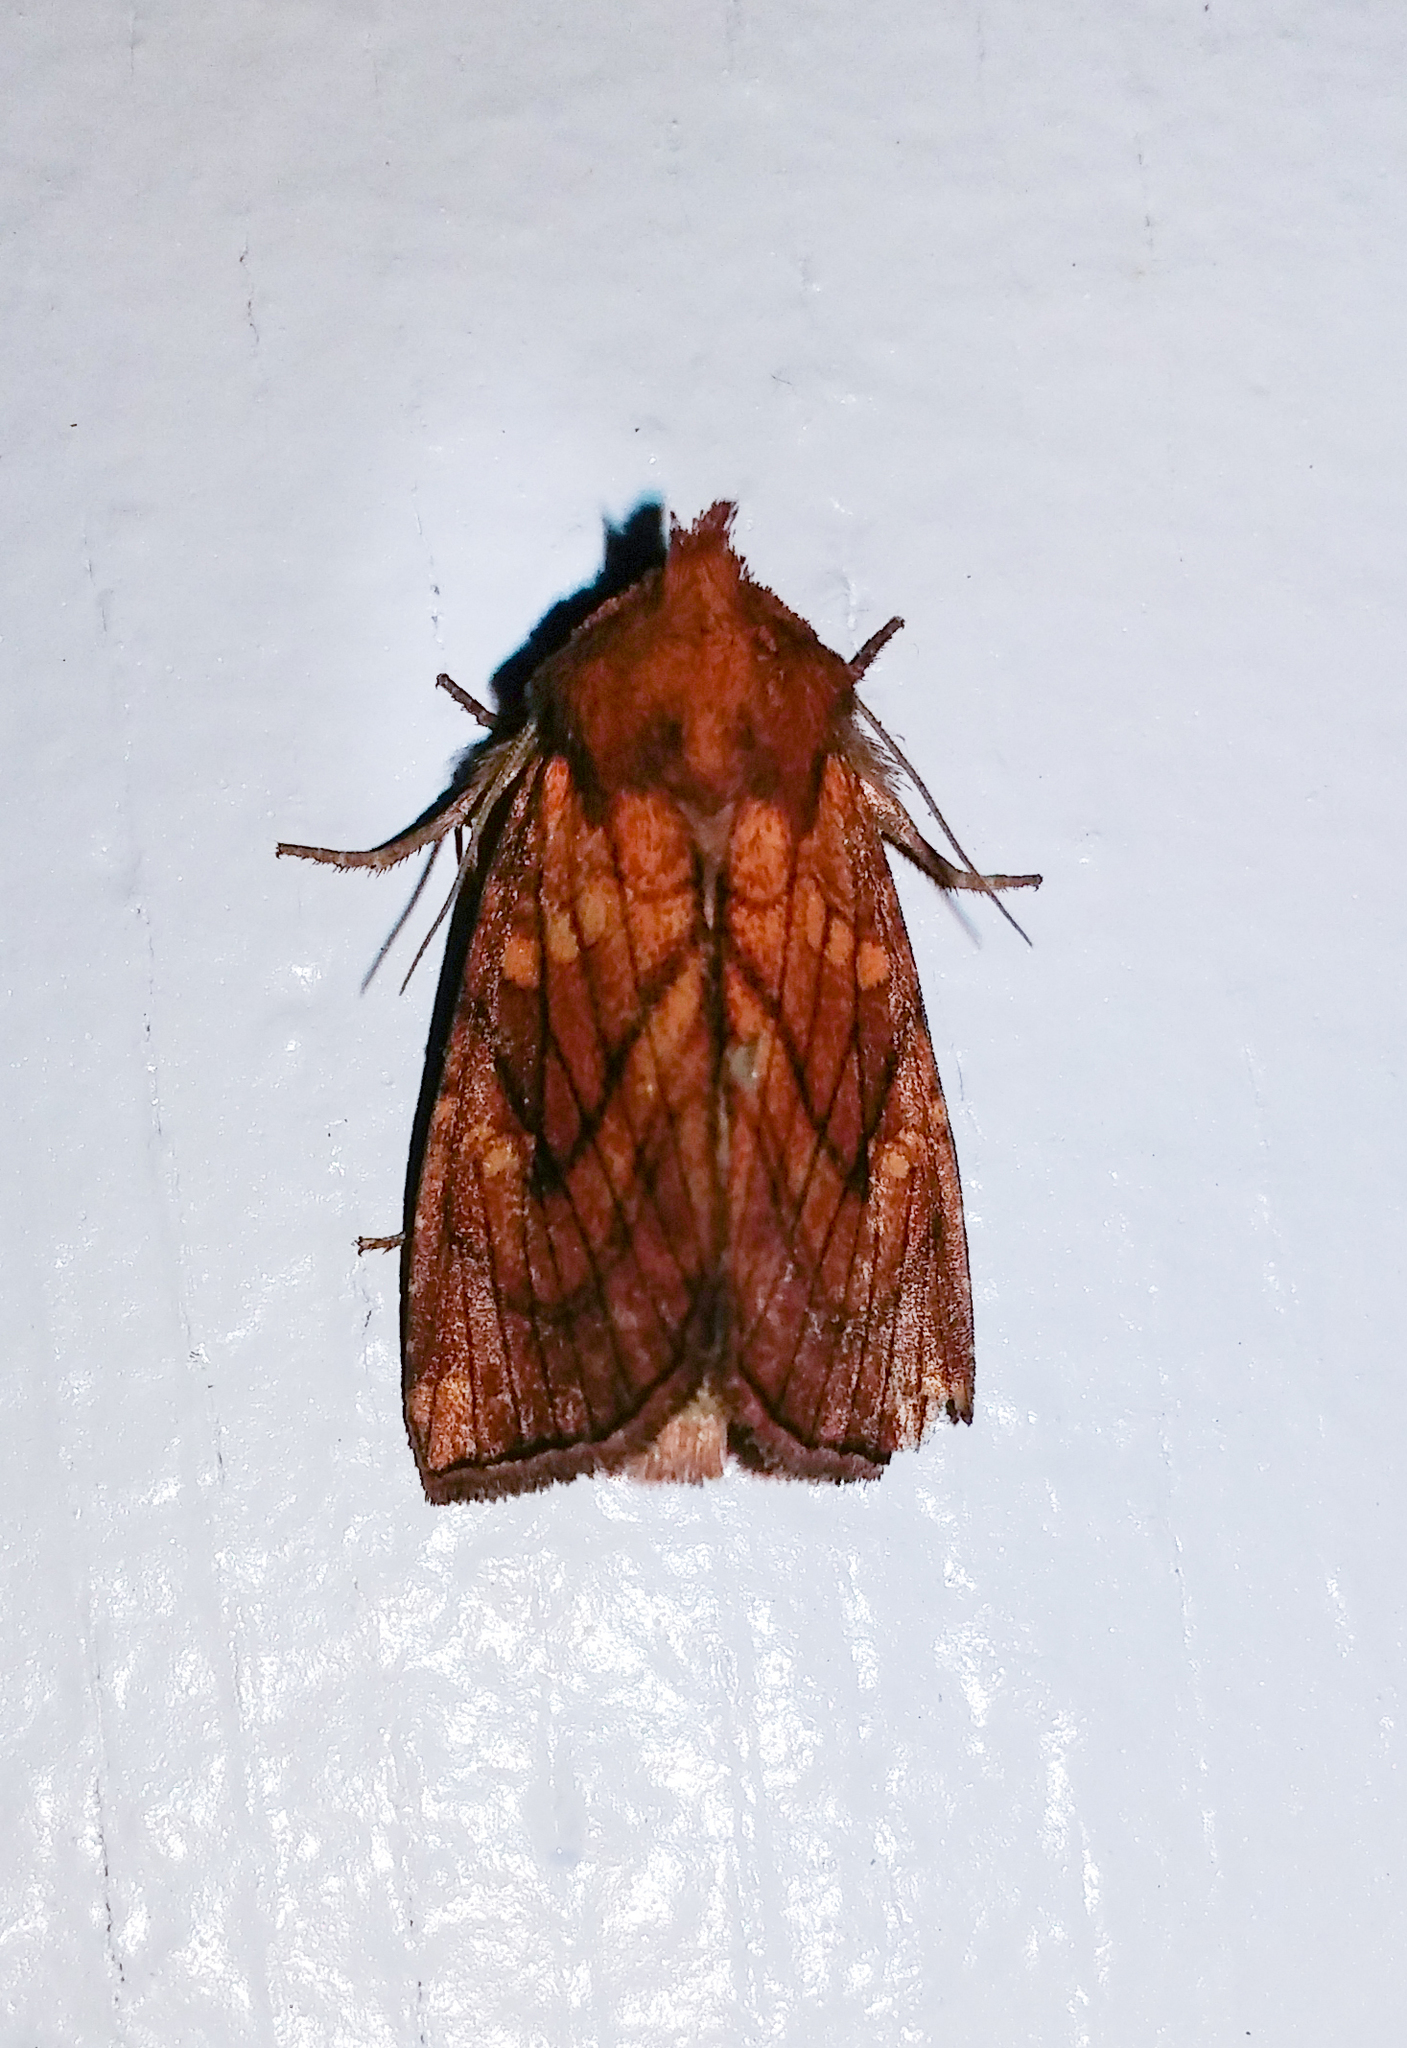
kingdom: Animalia
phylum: Arthropoda
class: Insecta
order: Lepidoptera
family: Noctuidae
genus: Papaipema
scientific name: Papaipema inquaesita
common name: Sensitive fern borer moth
